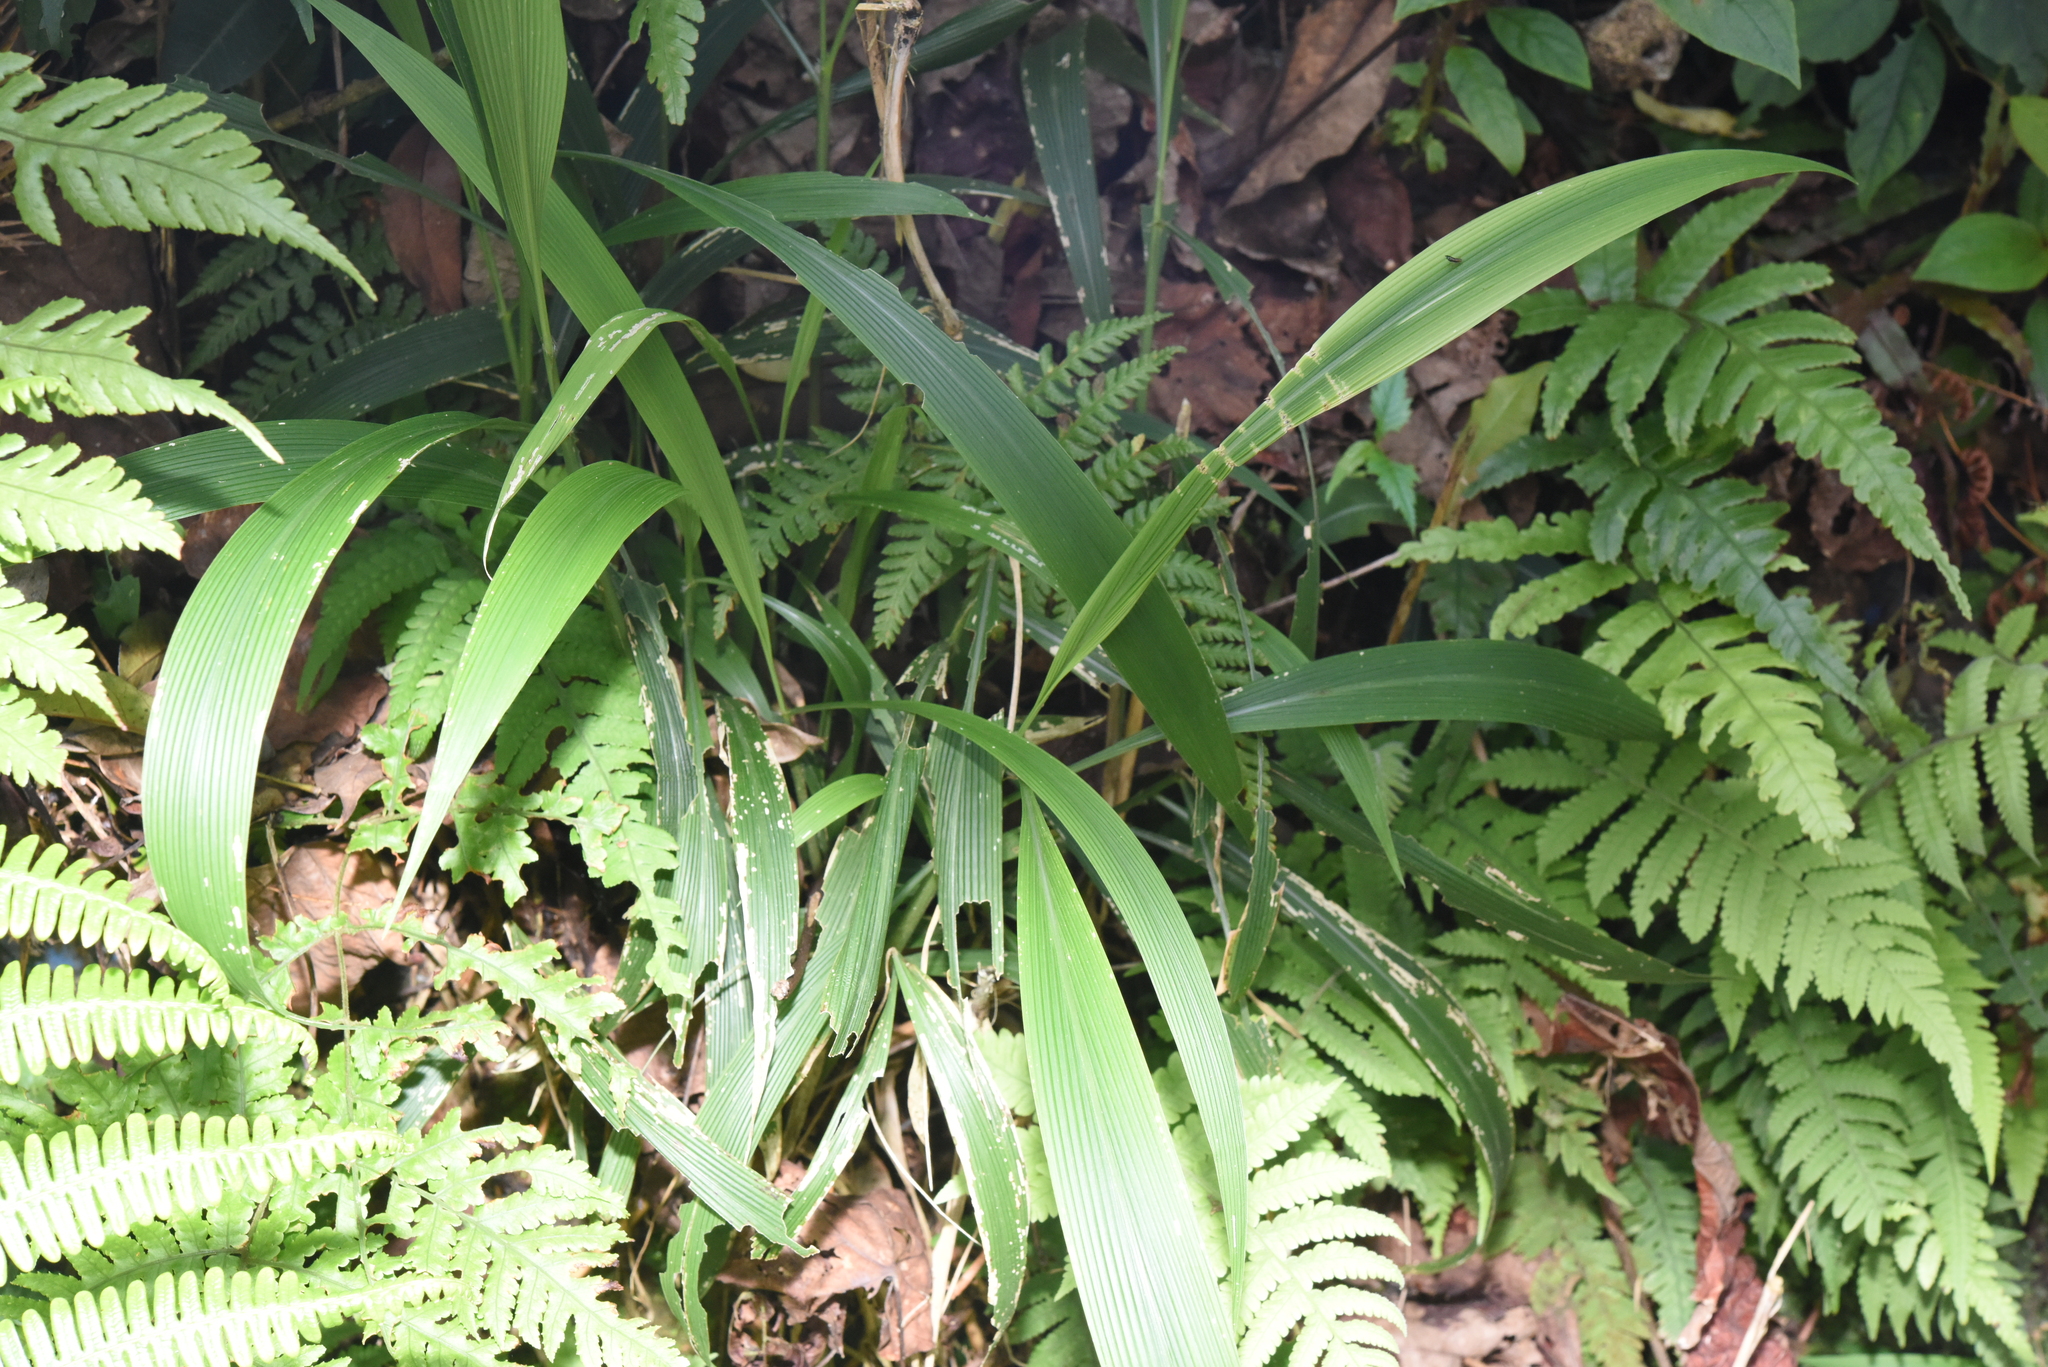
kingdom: Plantae
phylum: Tracheophyta
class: Liliopsida
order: Poales
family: Poaceae
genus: Setaria
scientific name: Setaria palmifolia
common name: Broadleaved bristlegrass
